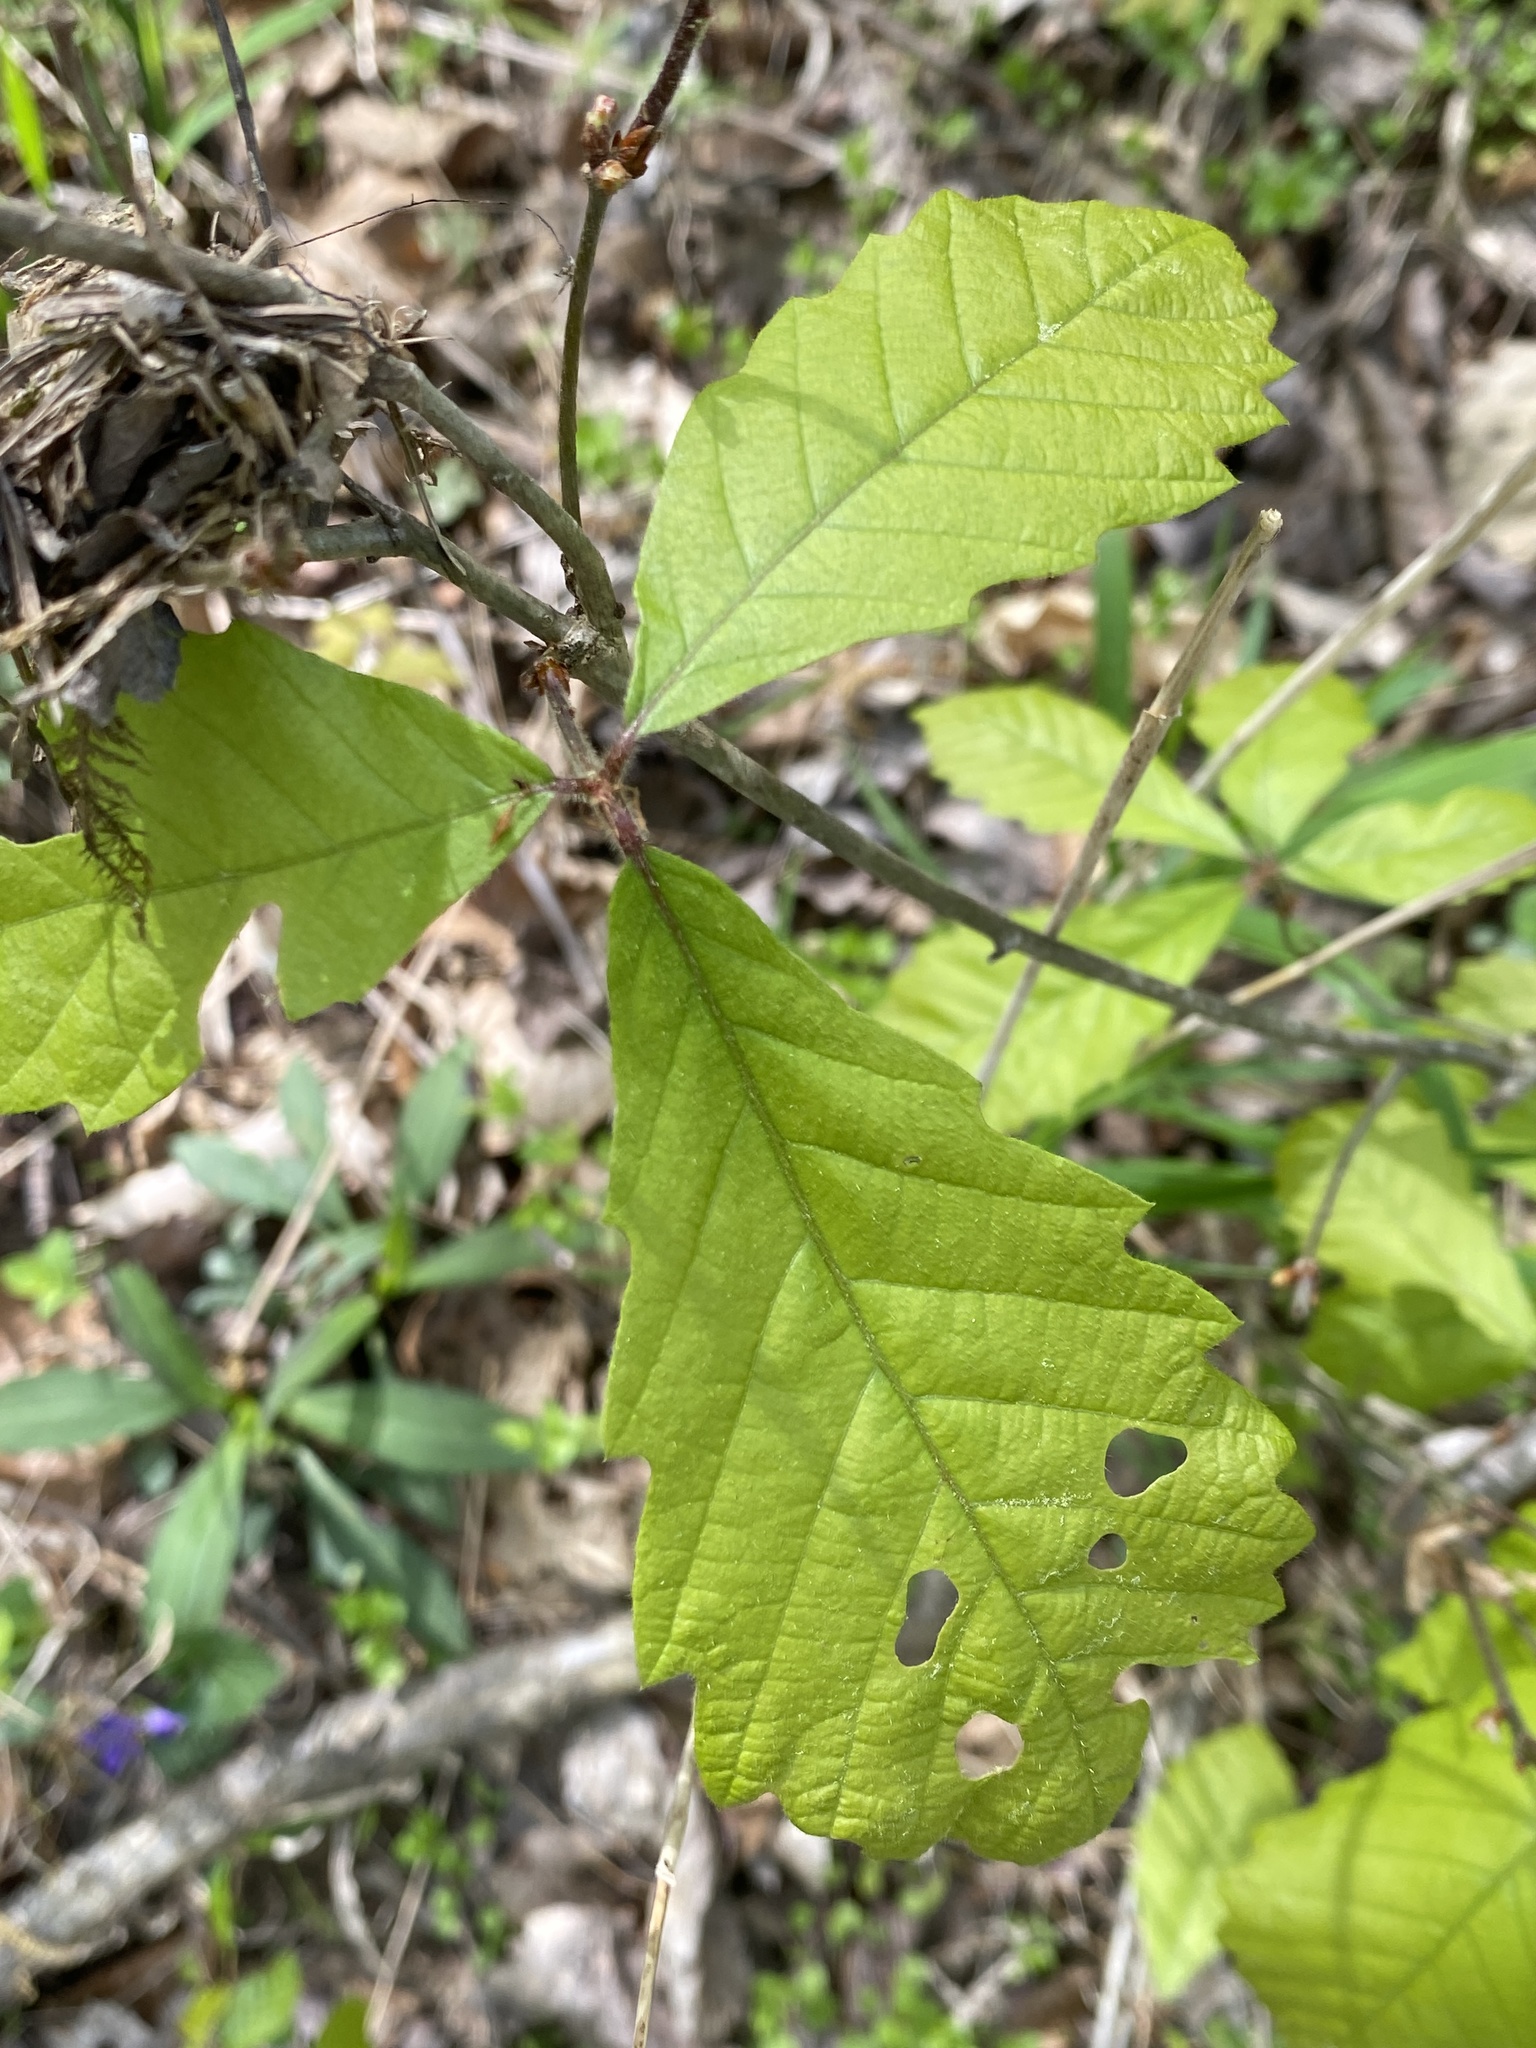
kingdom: Plantae
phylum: Tracheophyta
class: Magnoliopsida
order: Fagales
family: Fagaceae
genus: Quercus
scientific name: Quercus michauxii
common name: Swamp chestnut oak
